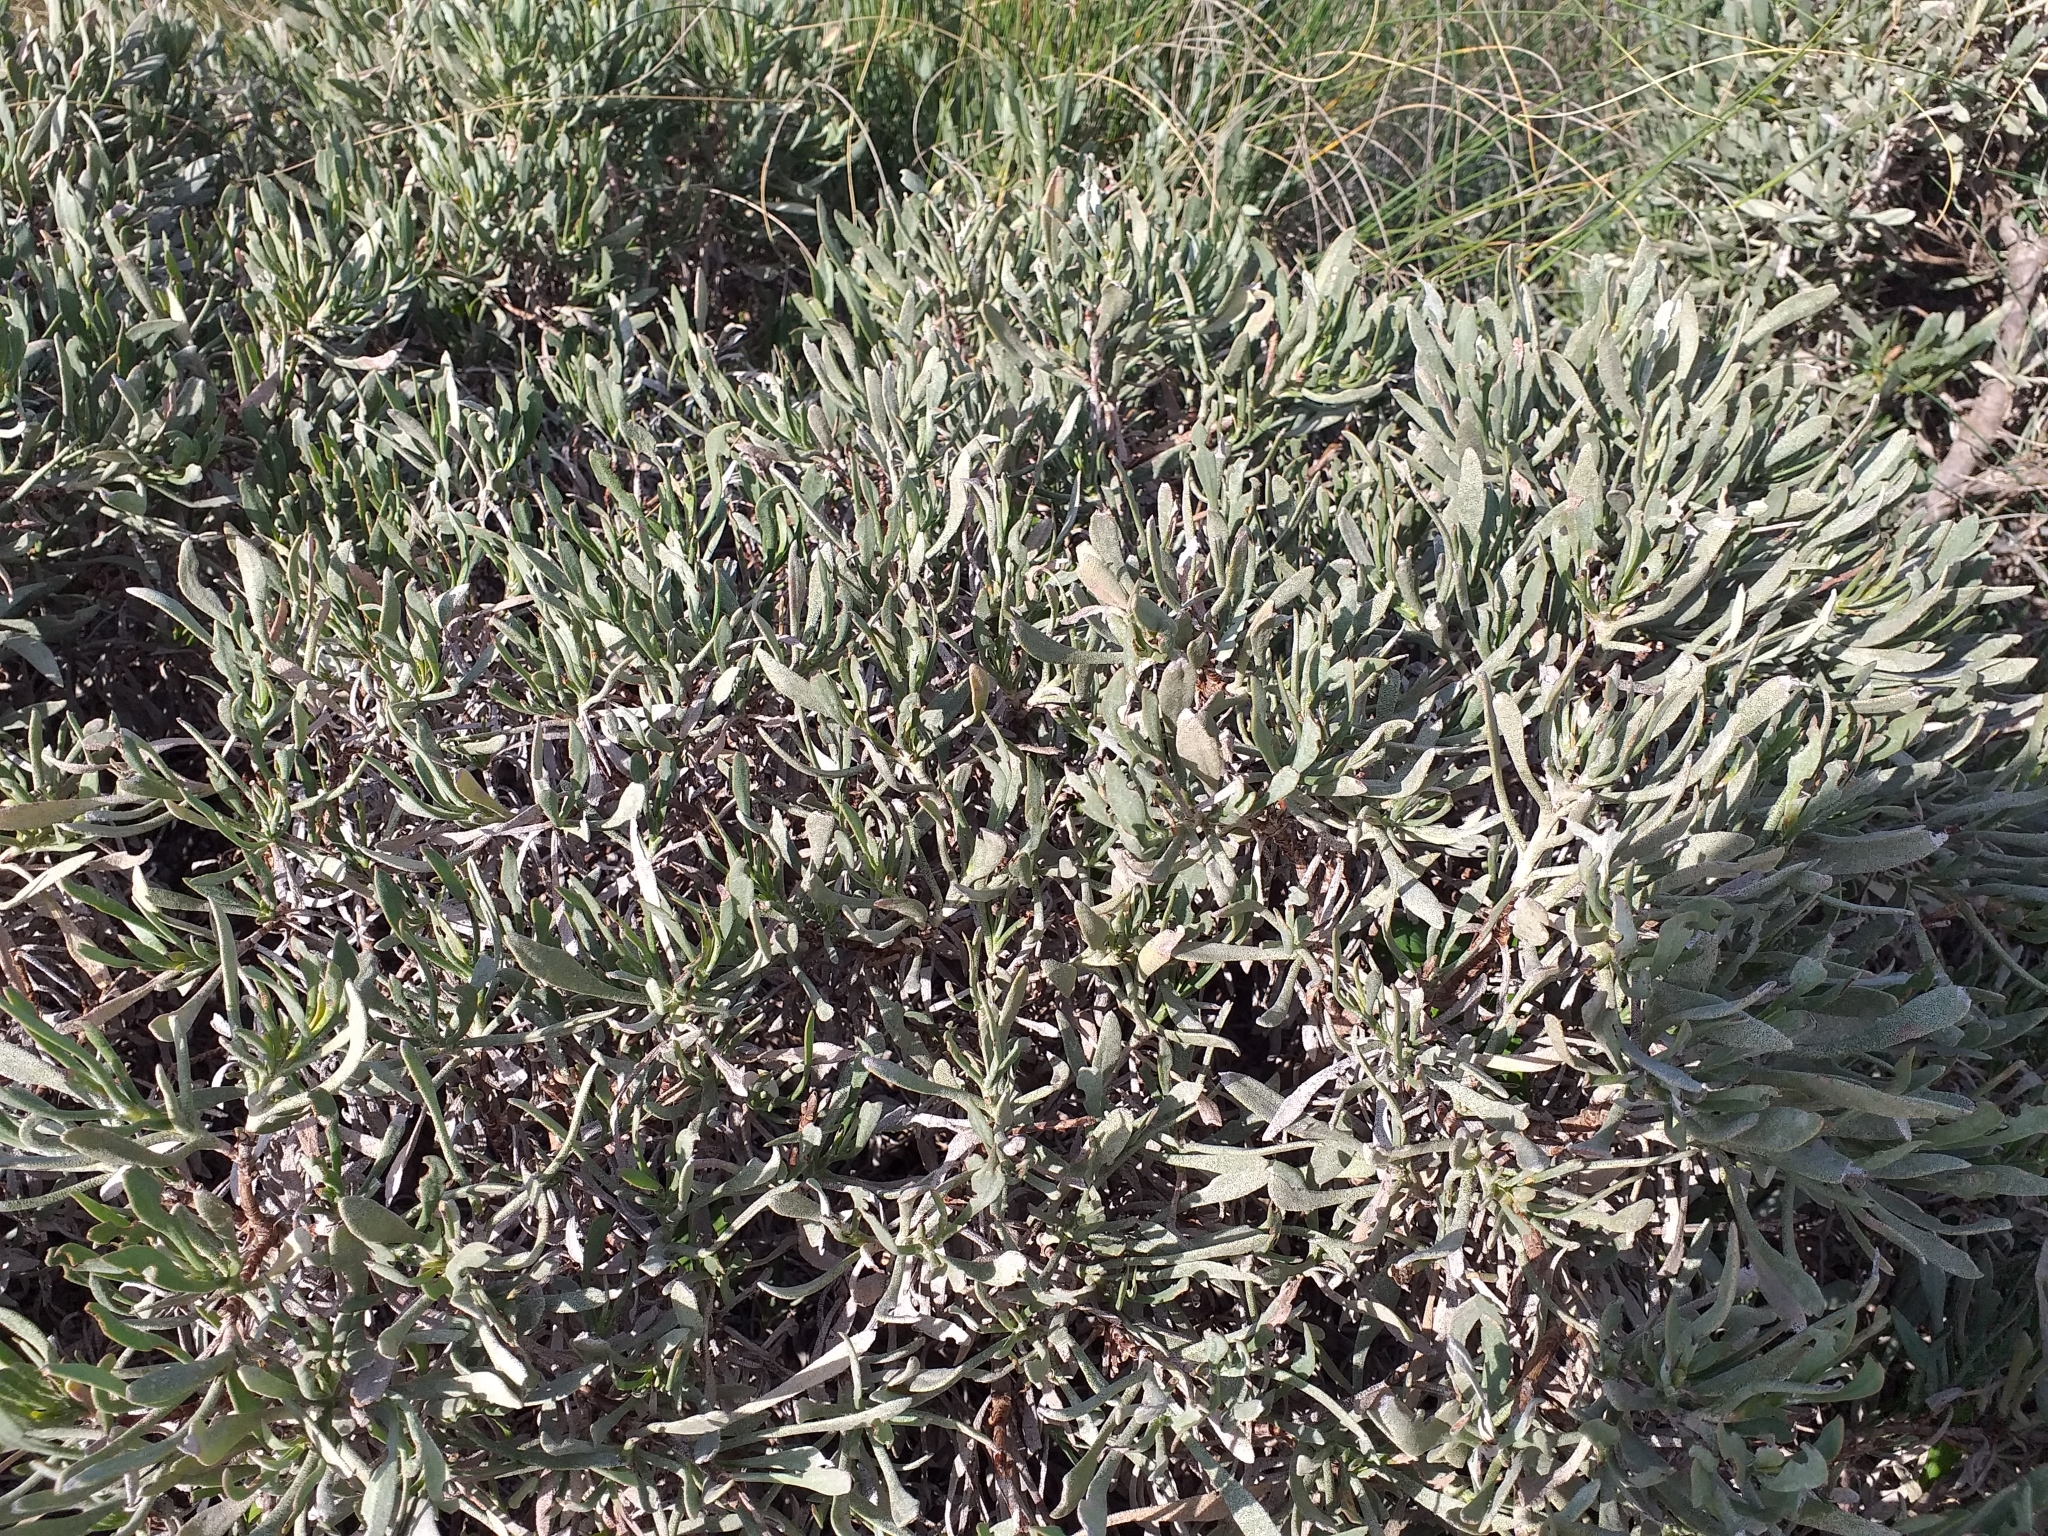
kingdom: Plantae
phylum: Tracheophyta
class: Magnoliopsida
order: Caryophyllales
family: Plumbaginaceae
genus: Limoniastrum
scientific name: Limoniastrum monopetalum
